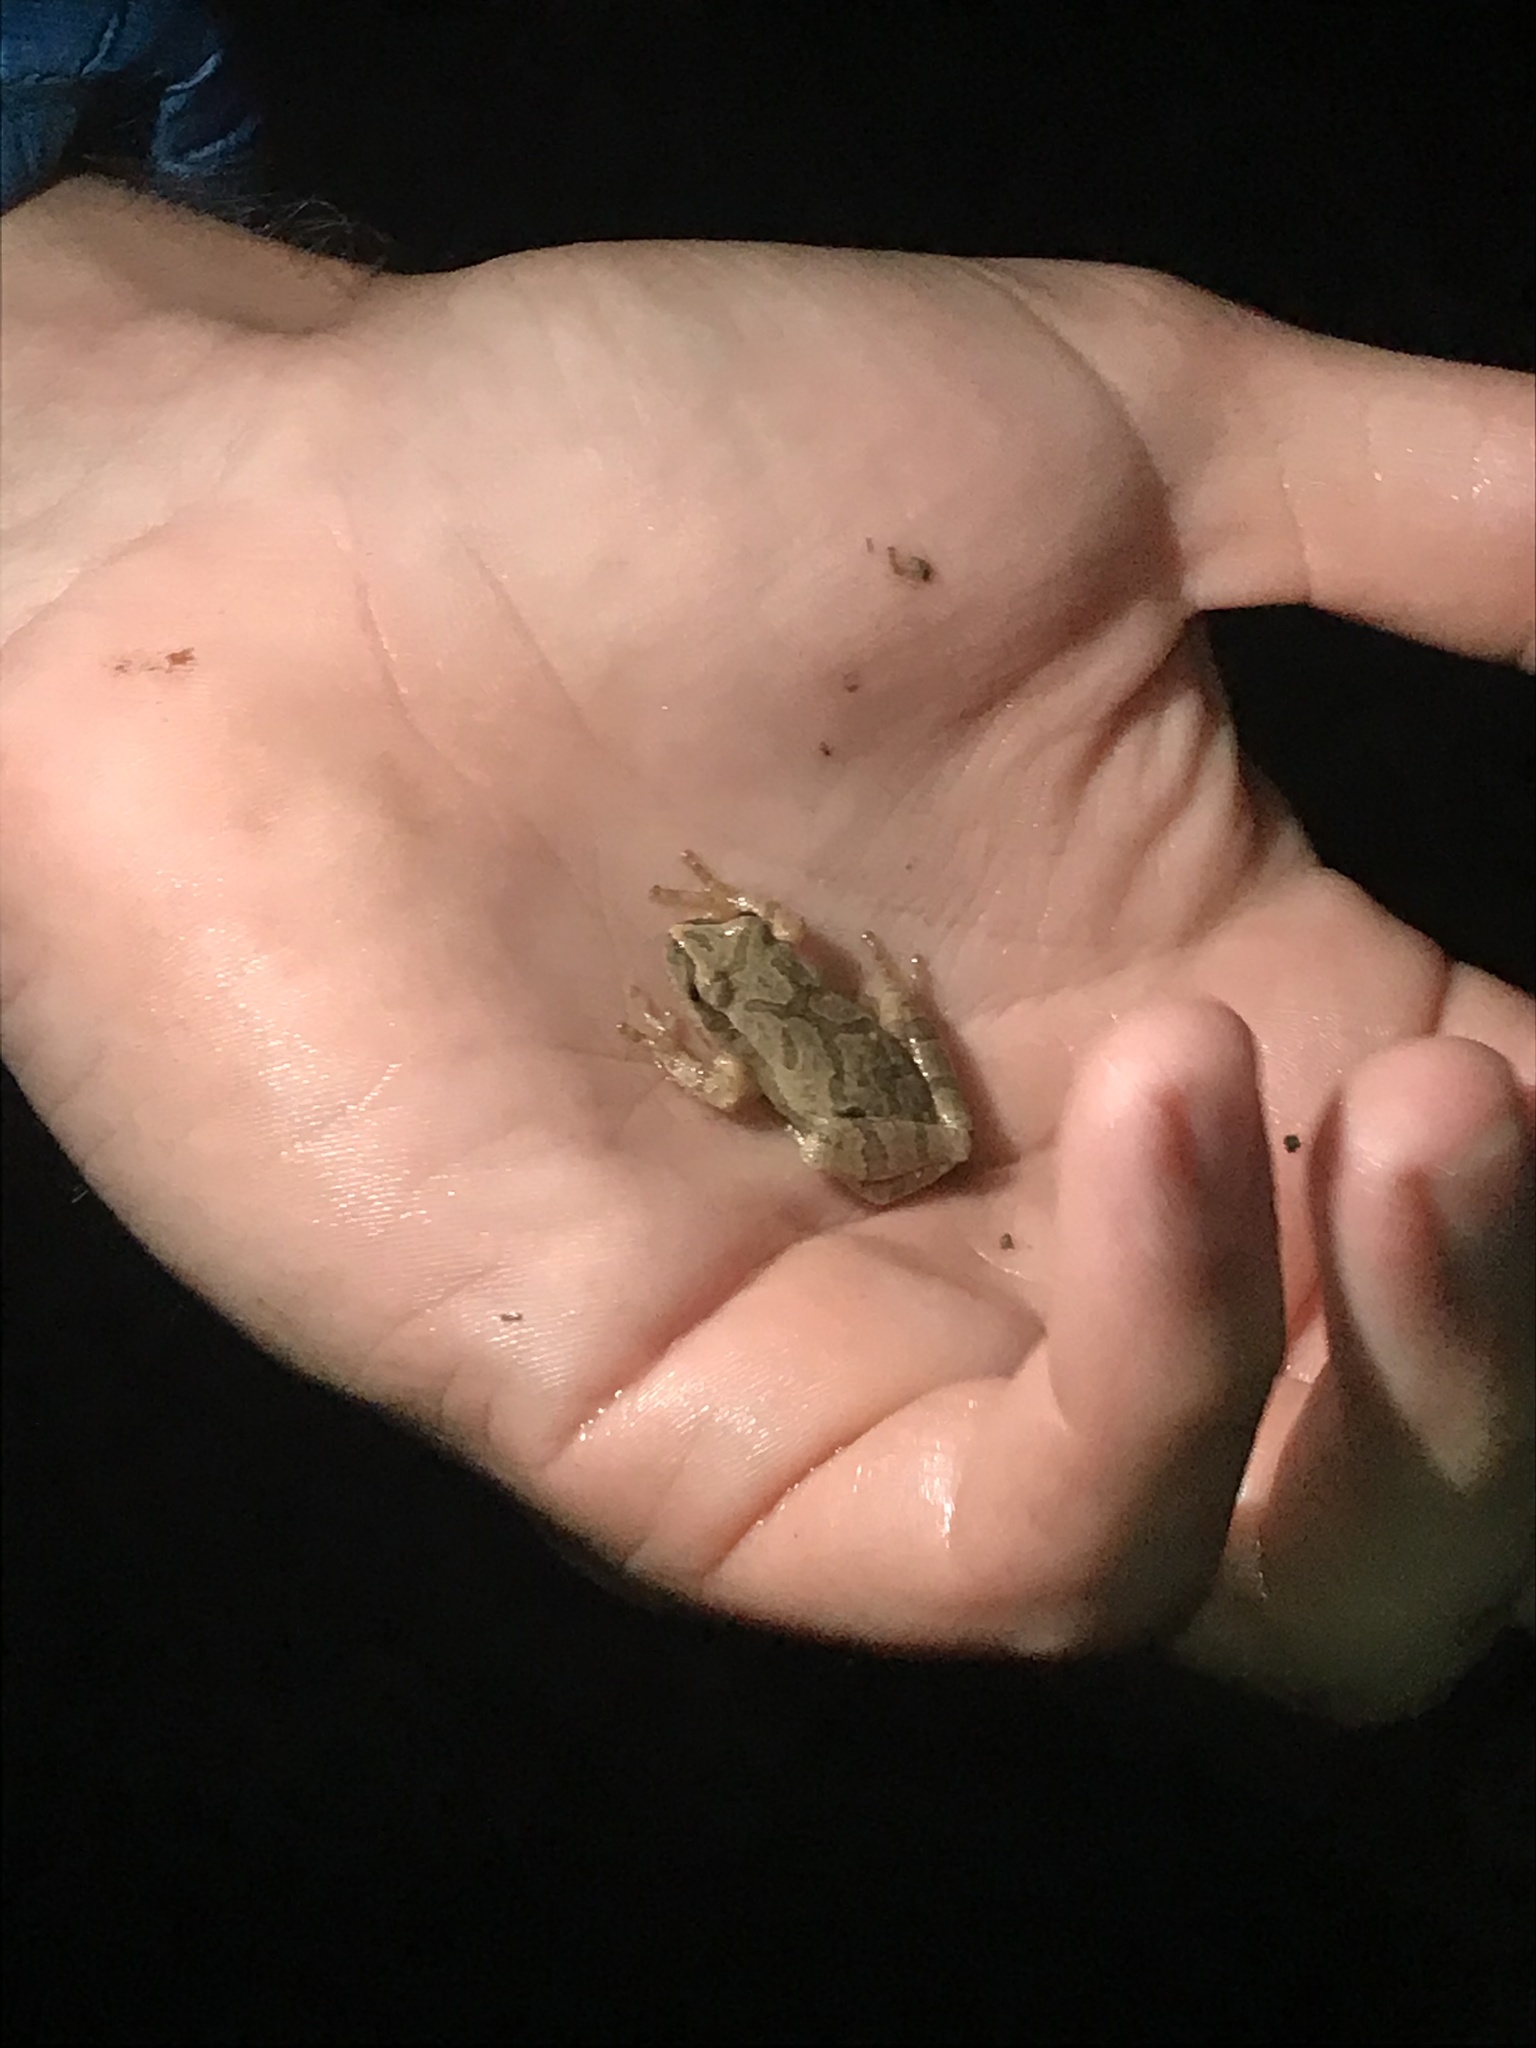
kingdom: Animalia
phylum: Chordata
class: Amphibia
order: Anura
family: Hylidae
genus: Pseudacris
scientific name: Pseudacris crucifer
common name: Spring peeper
